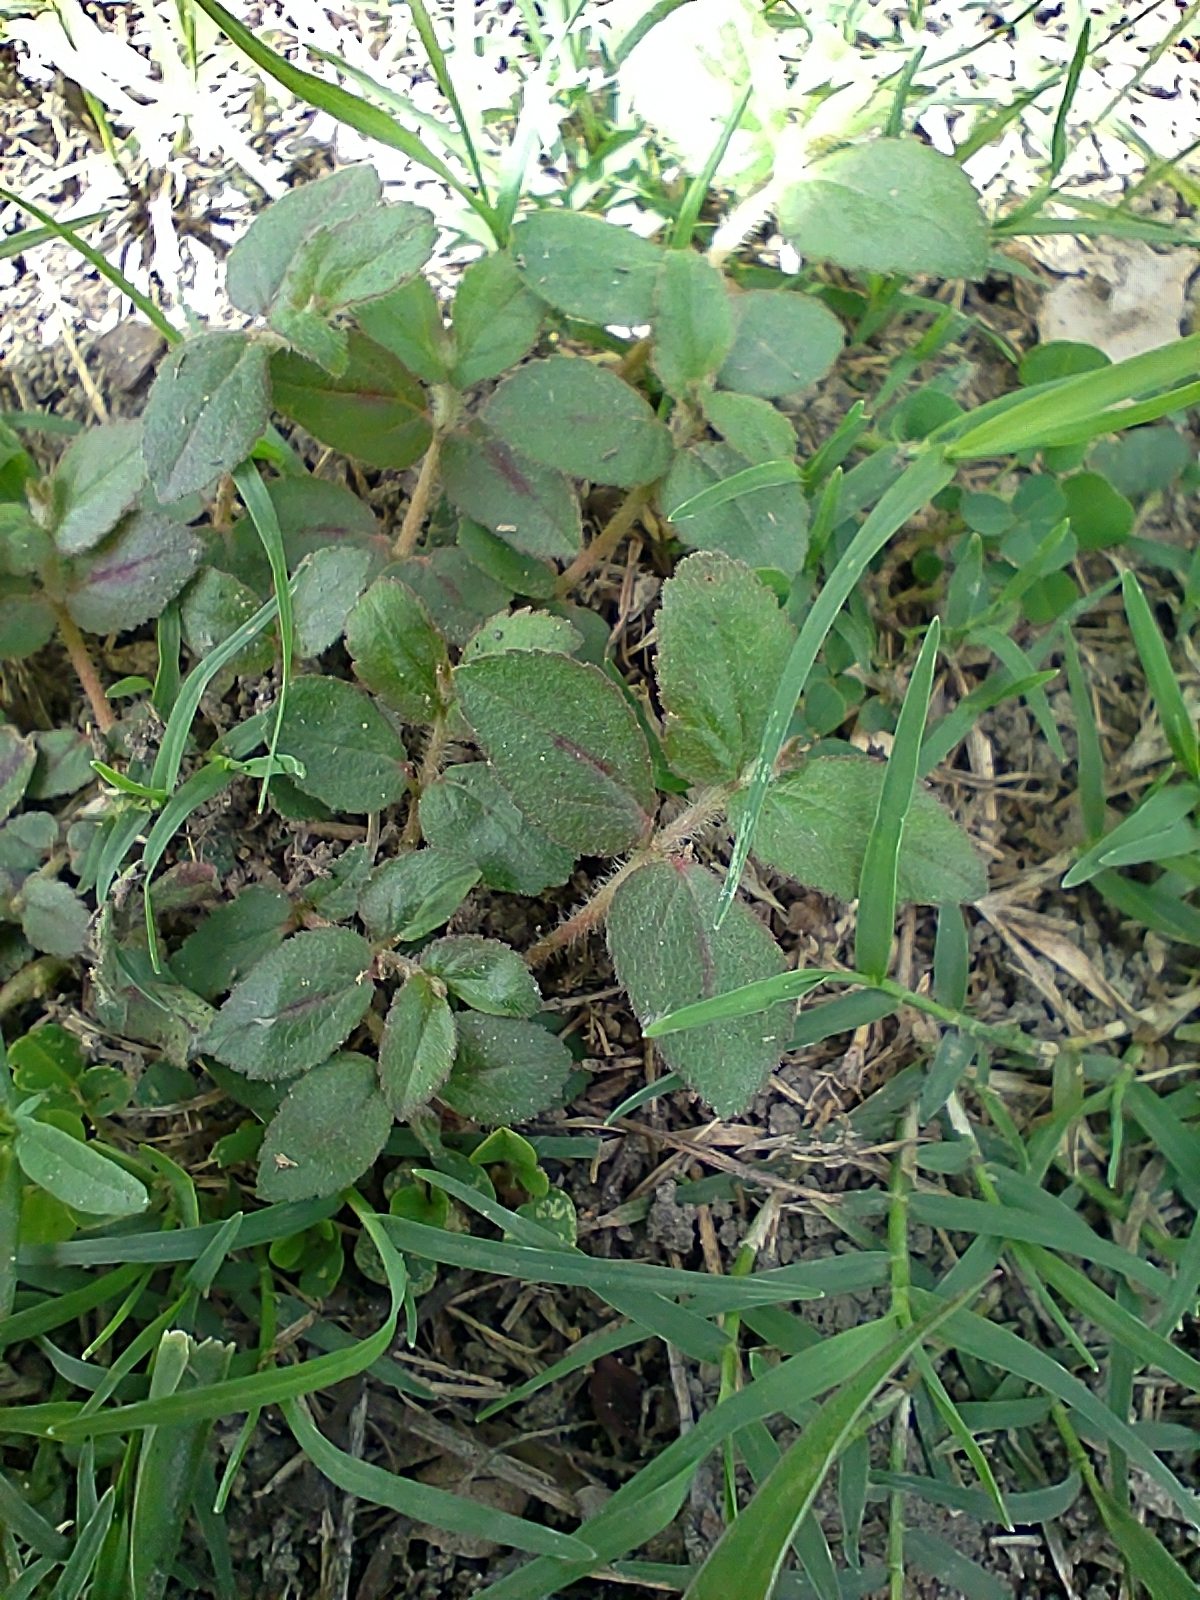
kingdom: Plantae
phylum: Tracheophyta
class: Magnoliopsida
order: Malpighiales
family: Euphorbiaceae
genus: Euphorbia
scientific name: Euphorbia hirta
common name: Pillpod sandmat
